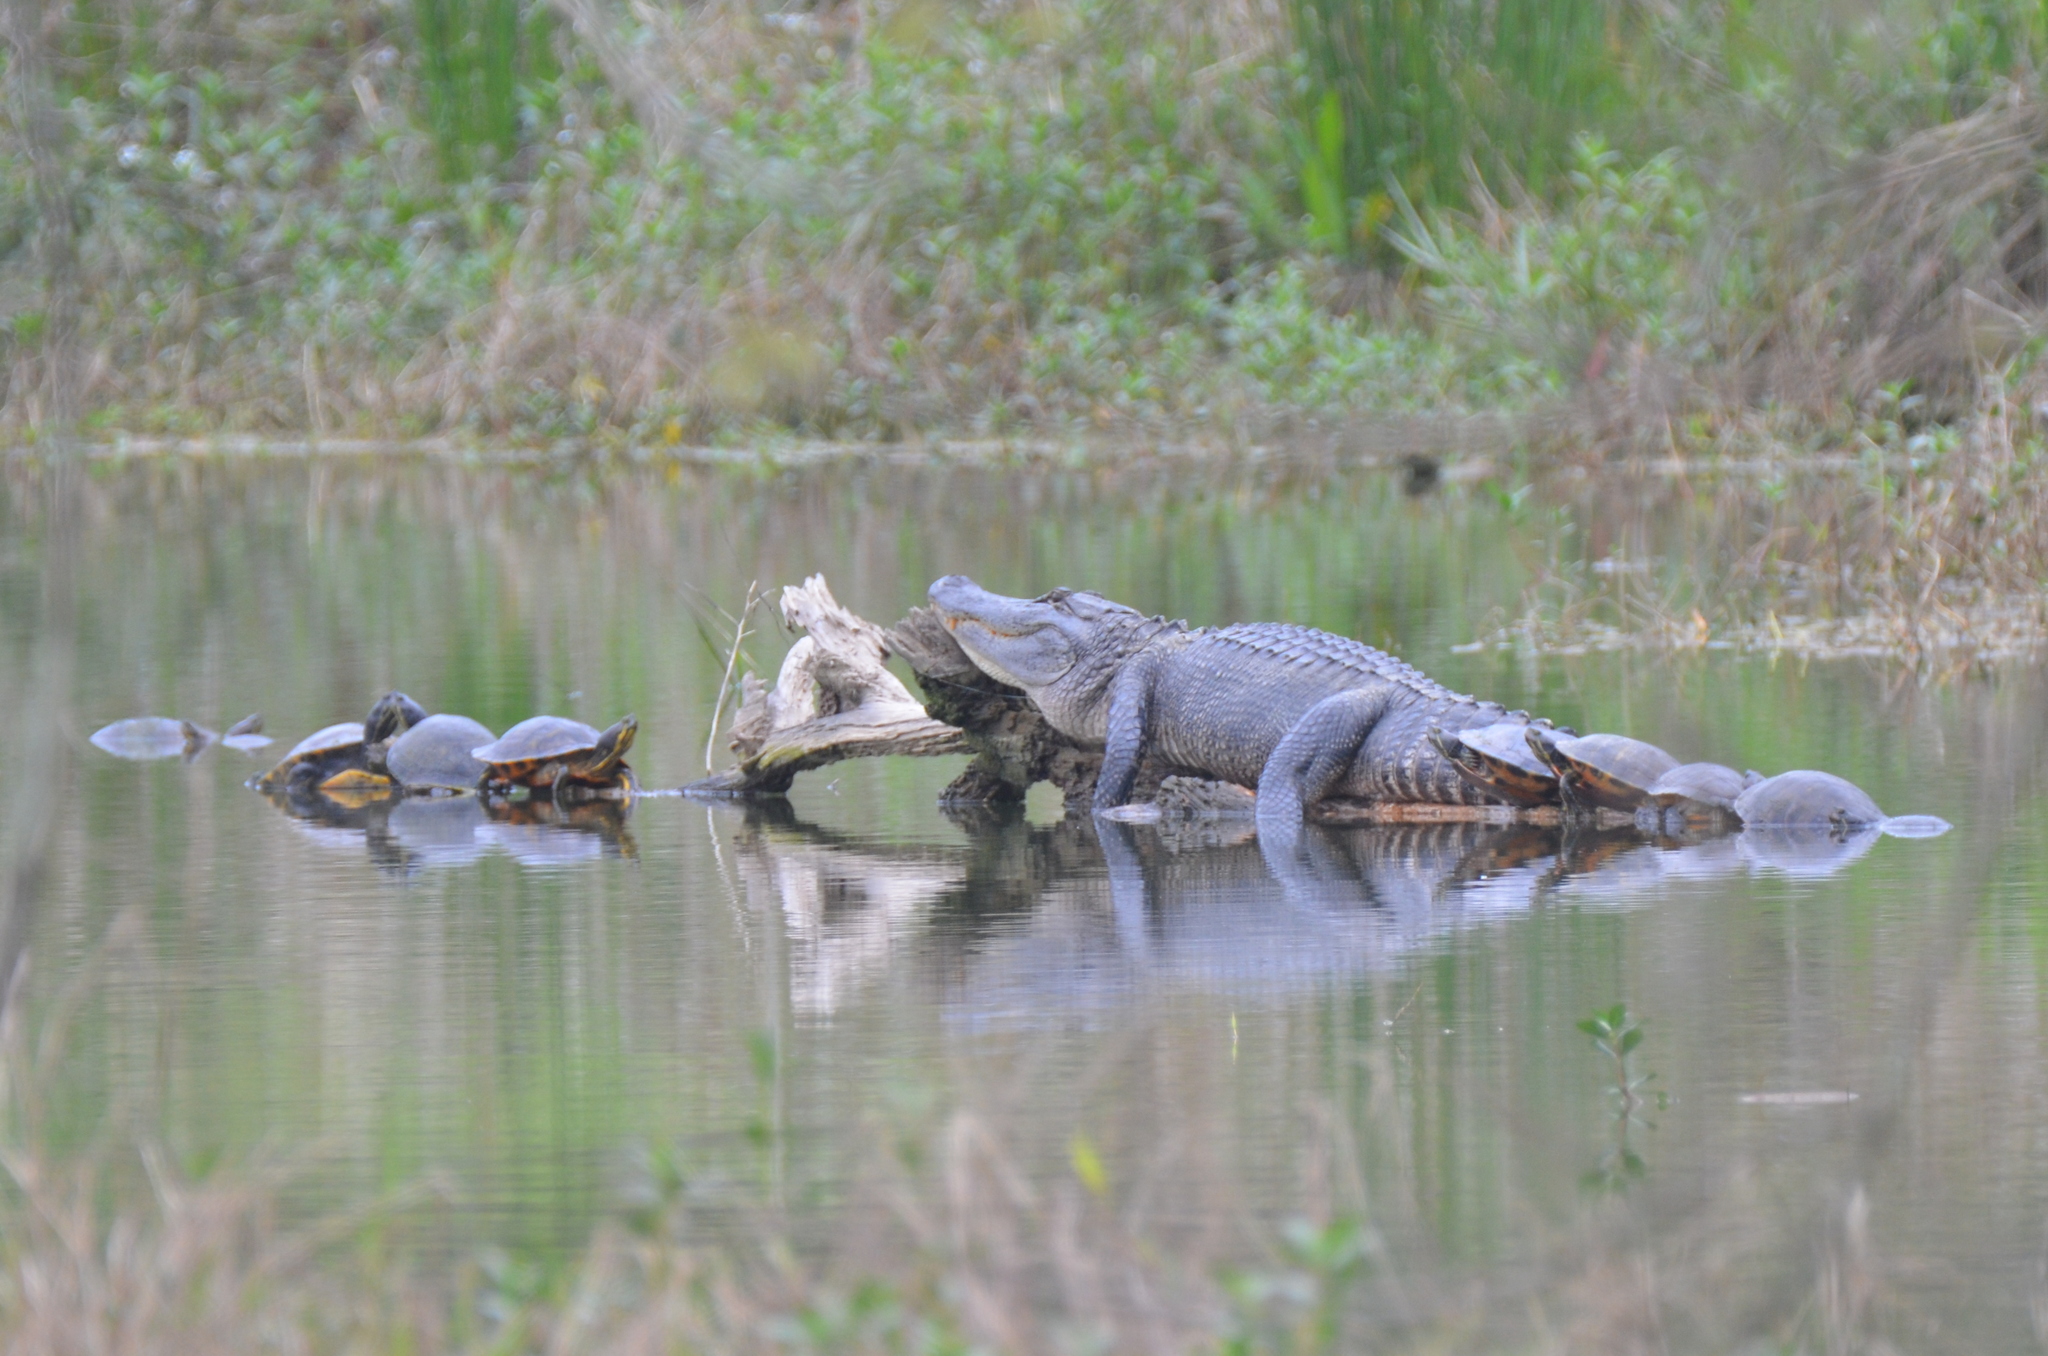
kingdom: Animalia
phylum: Chordata
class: Crocodylia
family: Alligatoridae
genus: Alligator
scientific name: Alligator mississippiensis
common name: American alligator
